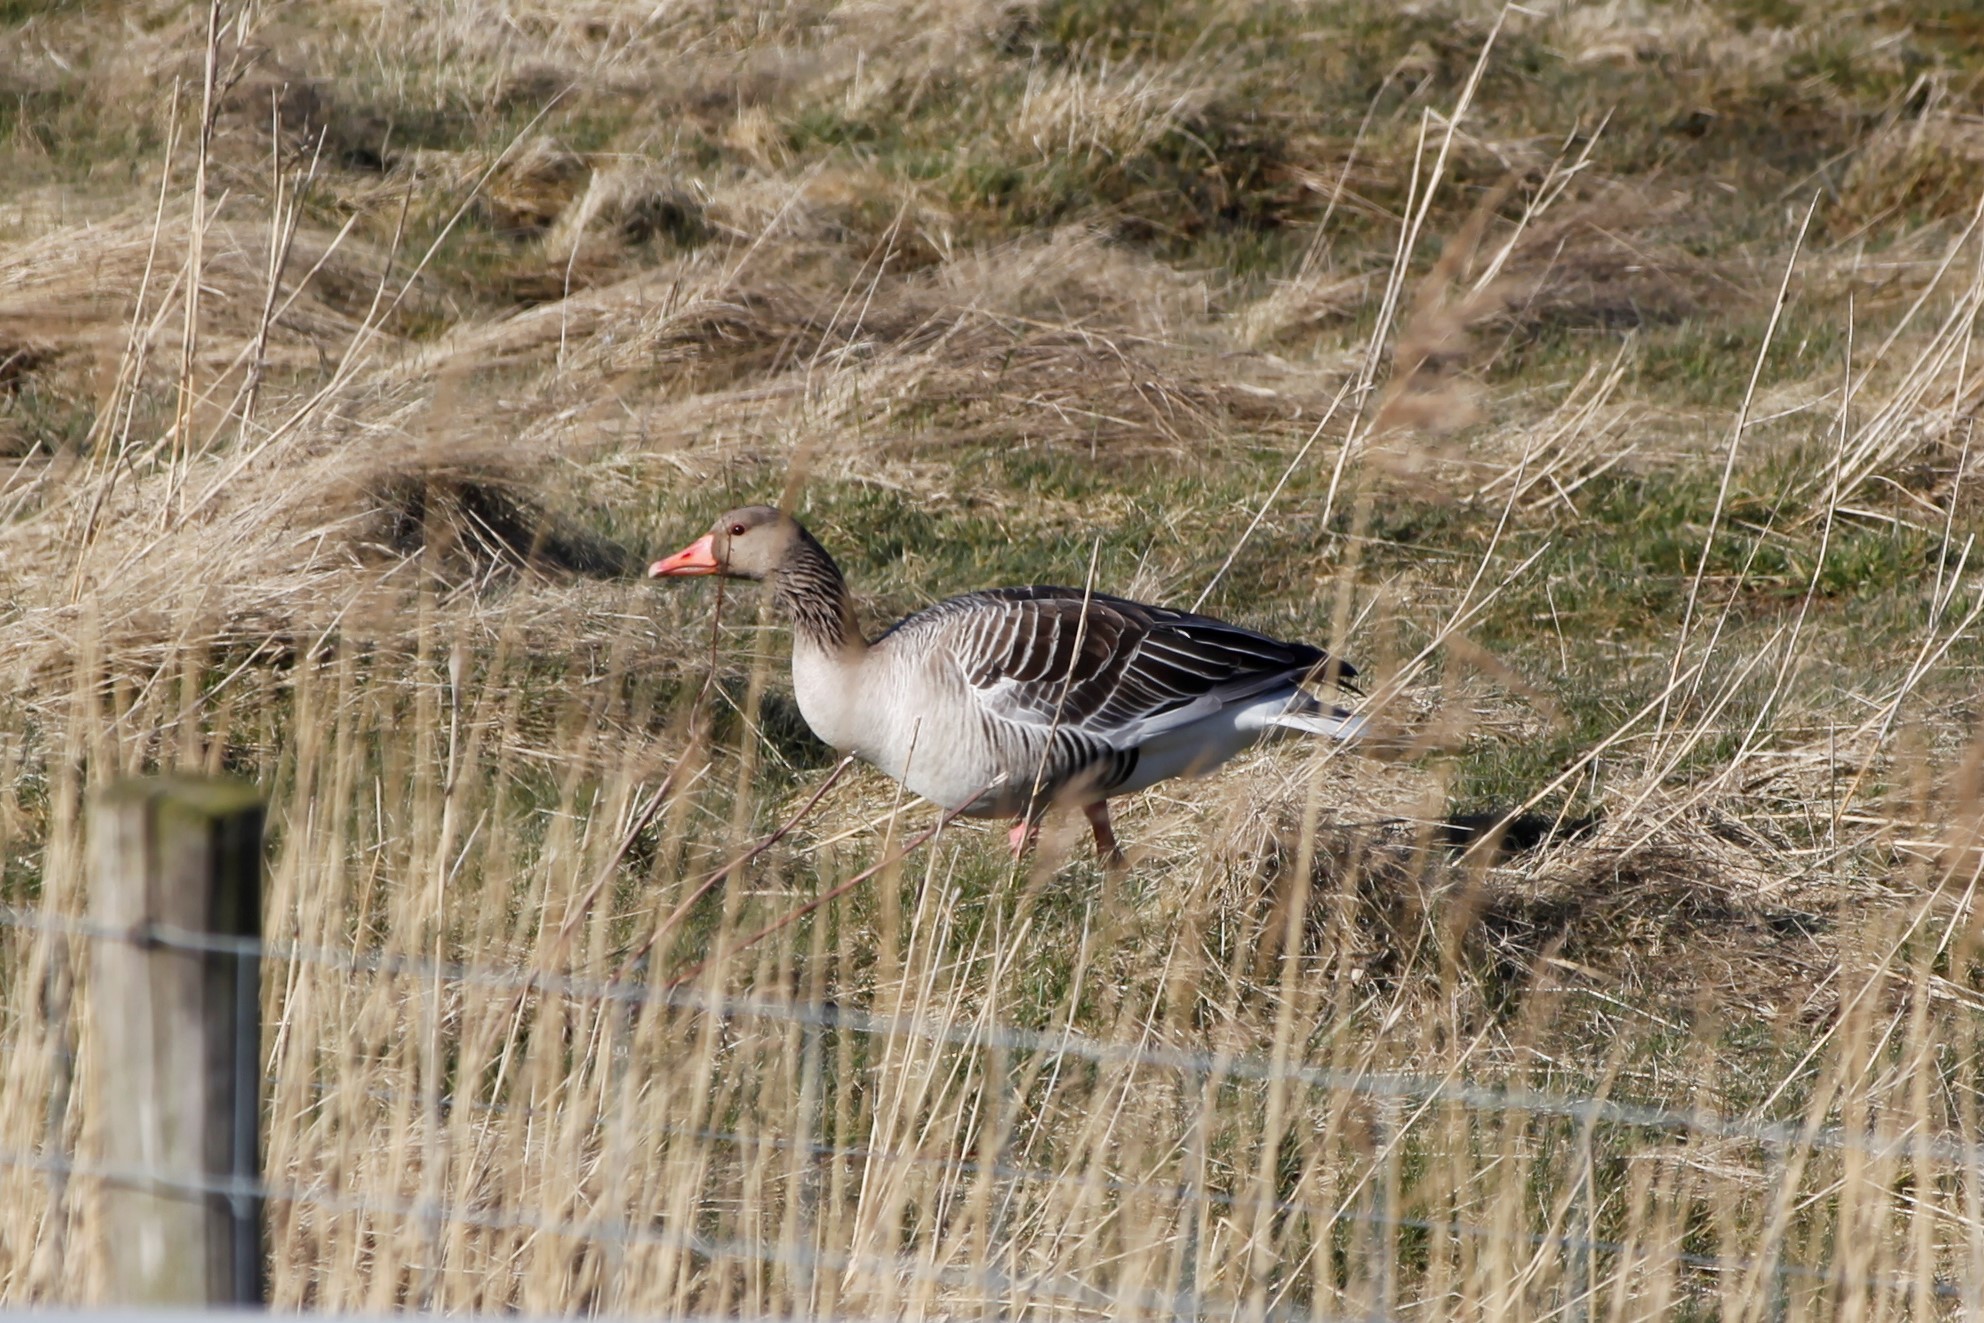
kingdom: Animalia
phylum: Chordata
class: Aves
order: Anseriformes
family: Anatidae
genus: Anser
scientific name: Anser anser
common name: Greylag goose
